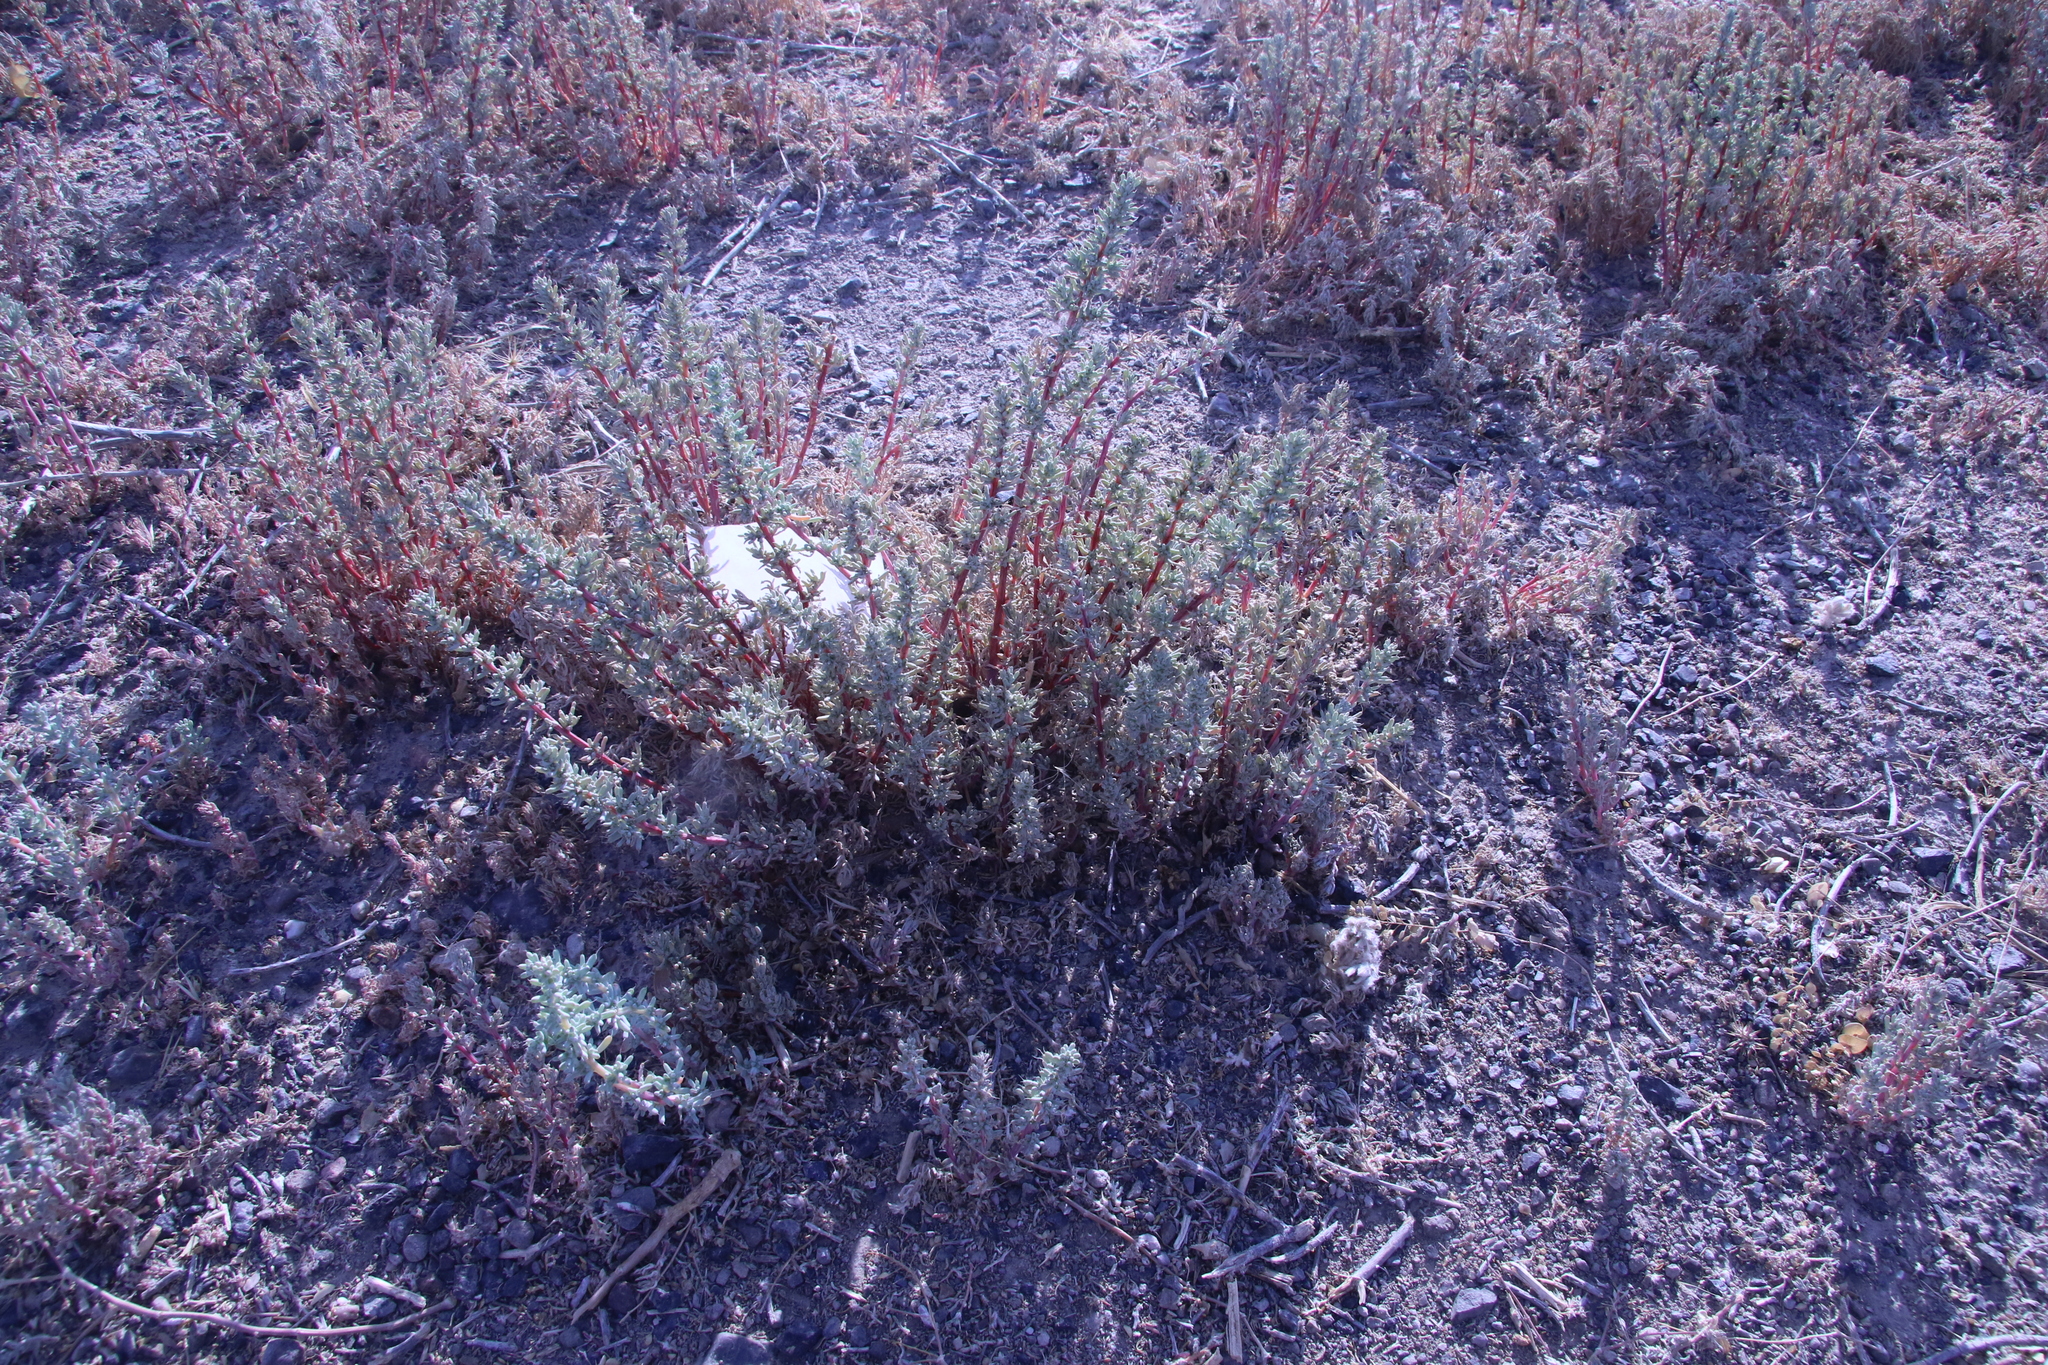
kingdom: Plantae
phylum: Tracheophyta
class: Magnoliopsida
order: Caryophyllales
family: Amaranthaceae
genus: Halogeton
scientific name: Halogeton glomeratus
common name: Saltlover
